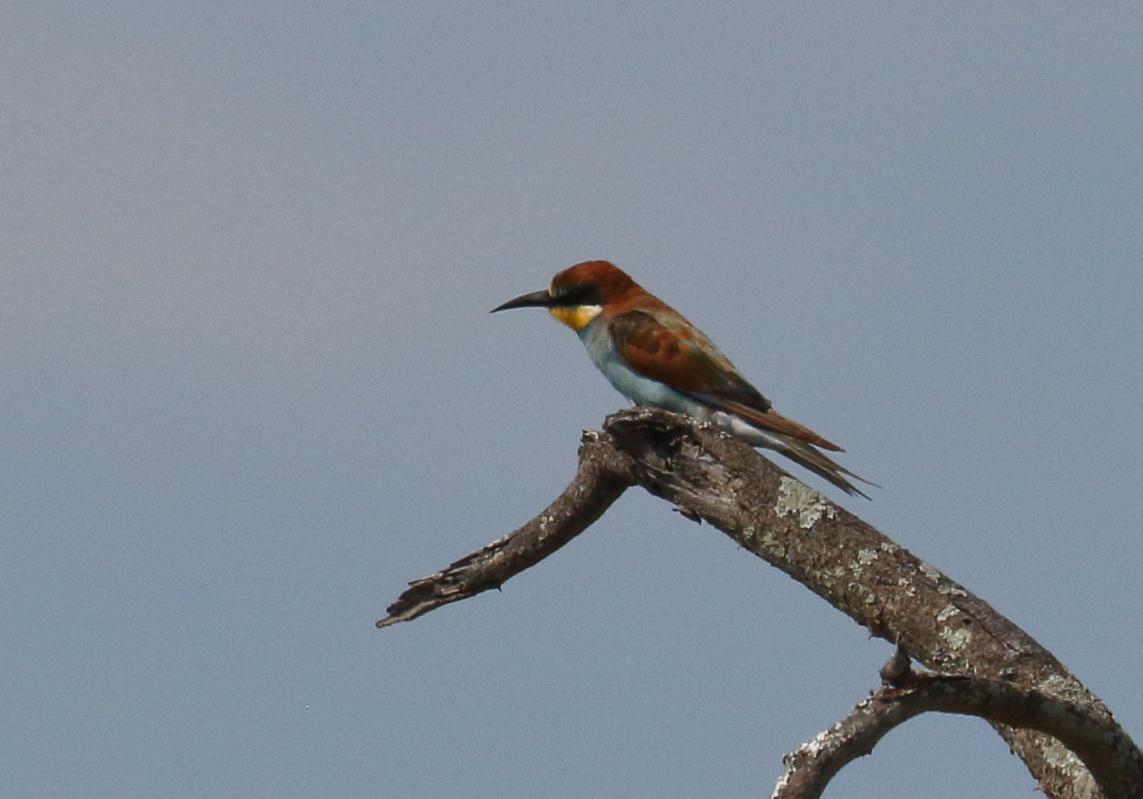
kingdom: Animalia
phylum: Chordata
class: Aves
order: Coraciiformes
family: Meropidae
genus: Merops
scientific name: Merops apiaster
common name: European bee-eater
